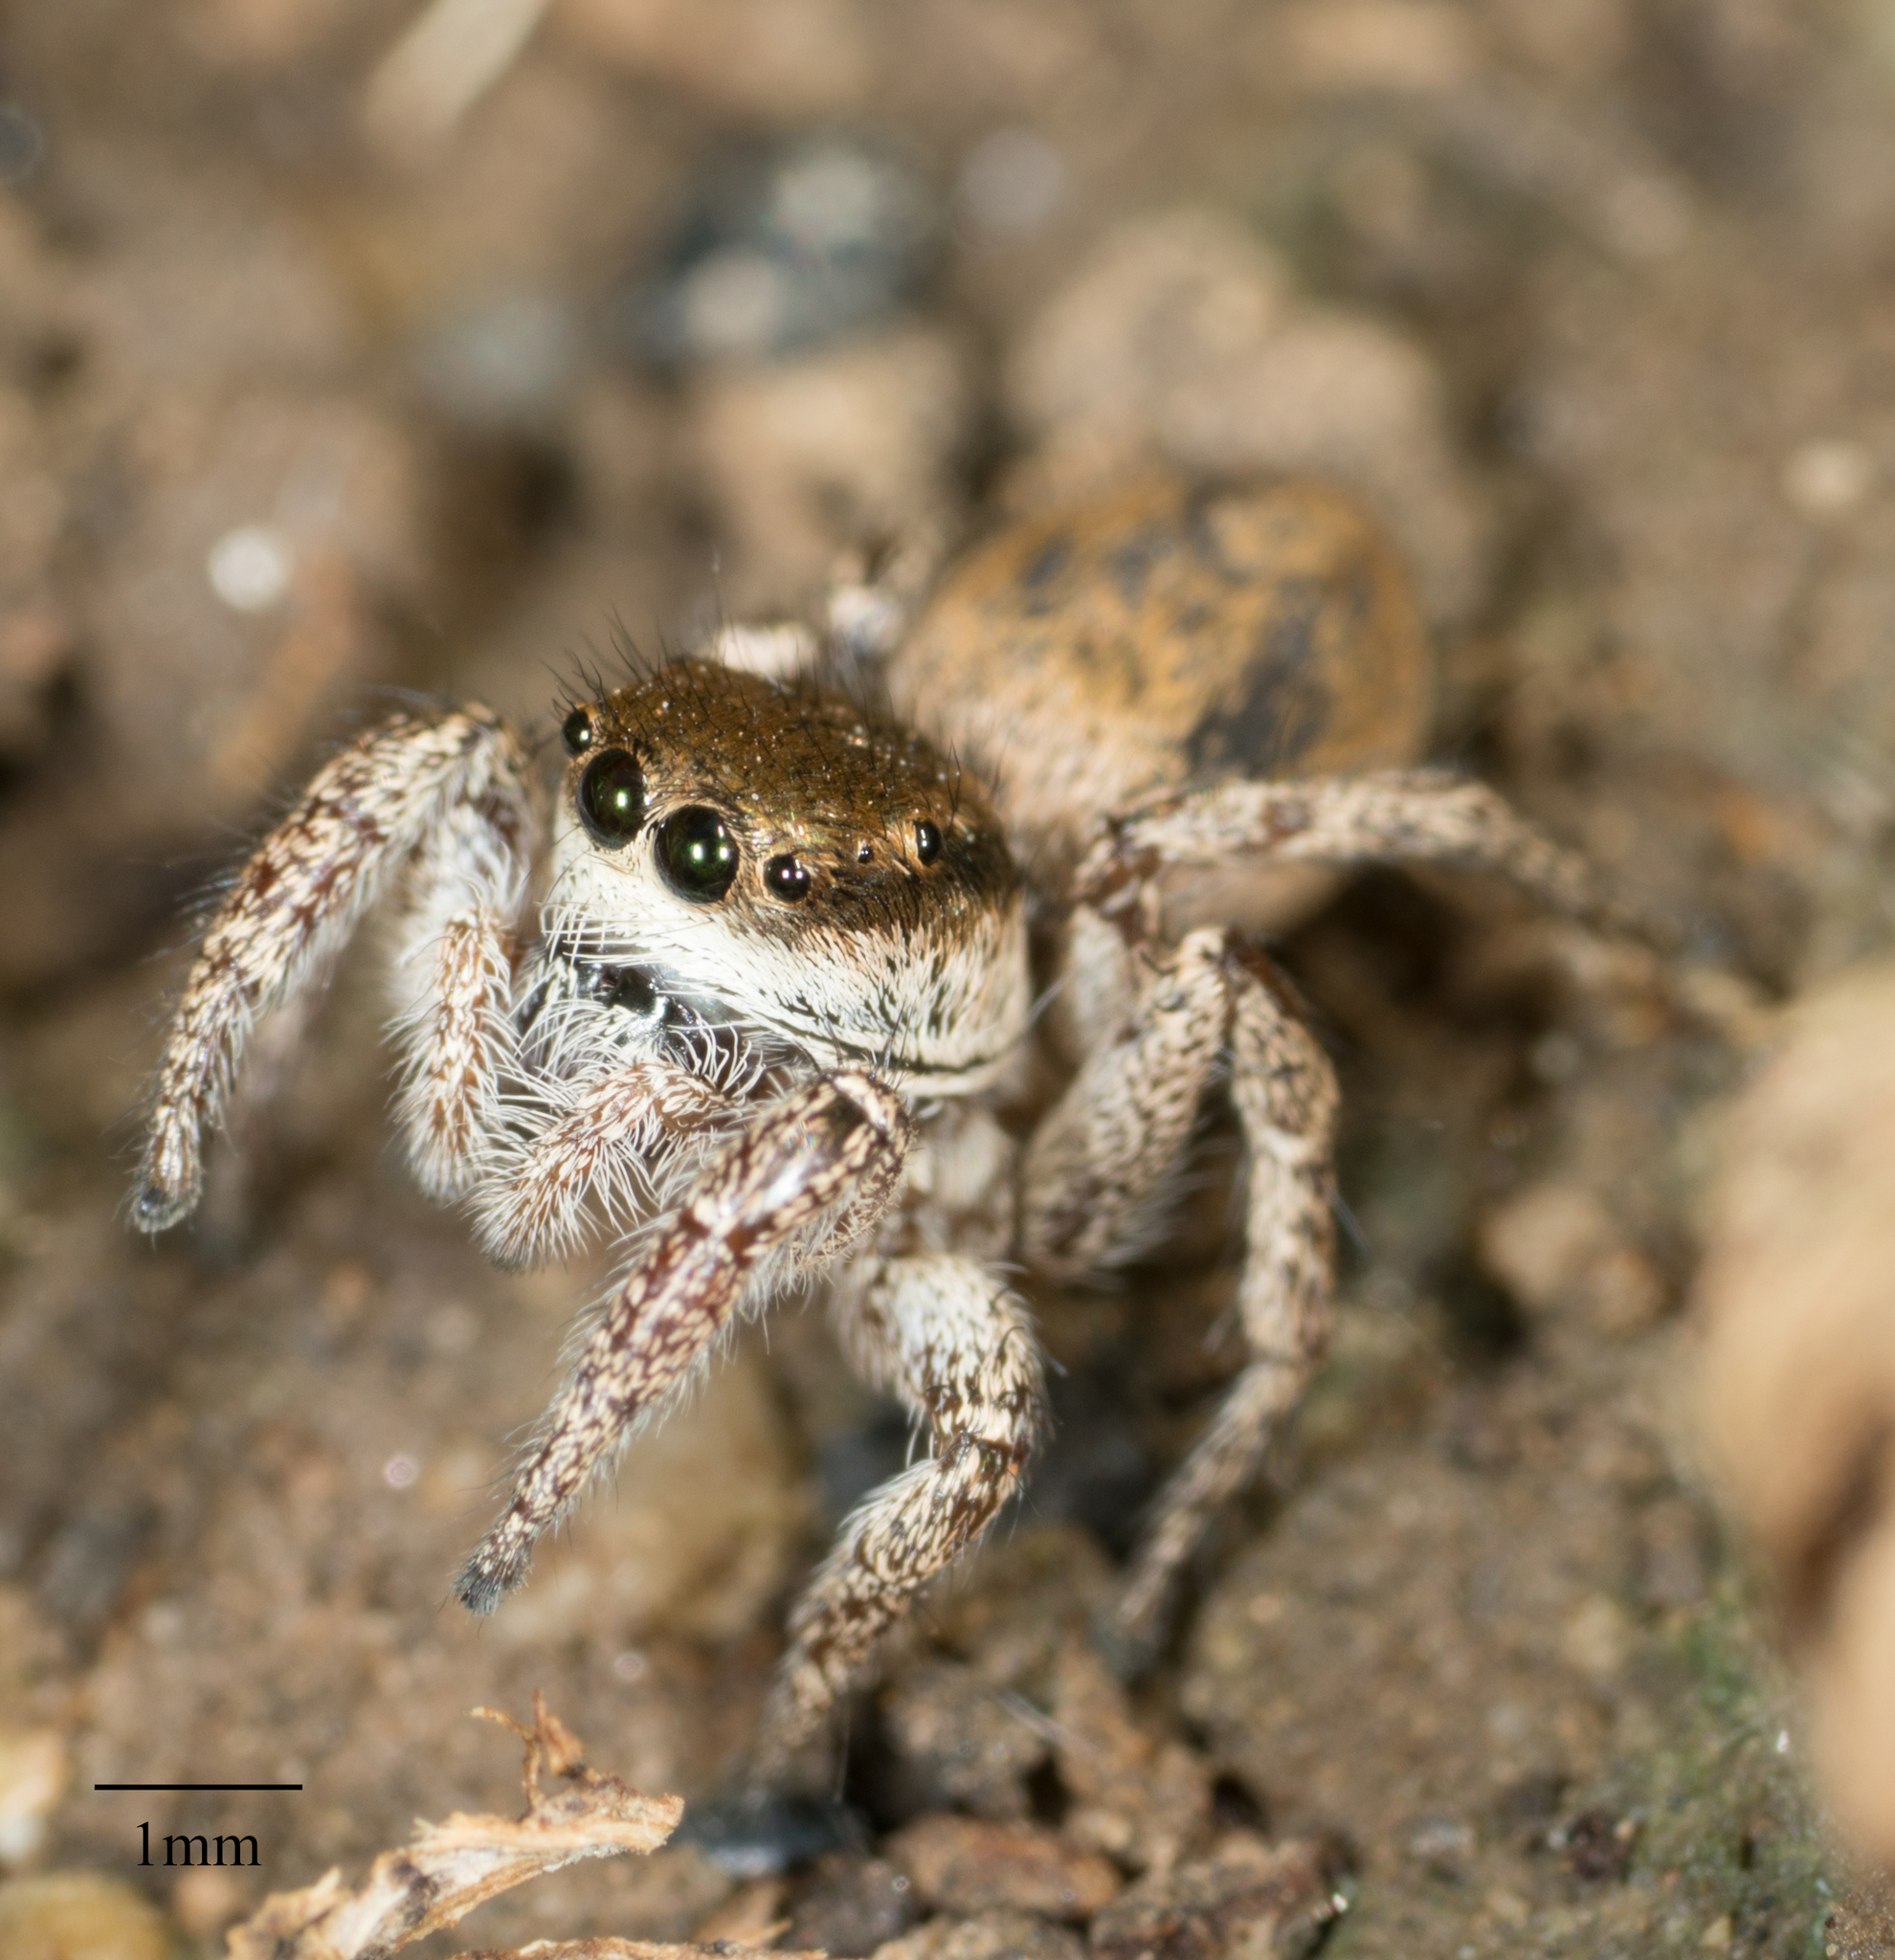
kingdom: Animalia
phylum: Arthropoda
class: Arachnida
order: Araneae
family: Salticidae
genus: Habronattus
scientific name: Habronattus pyrrithrix
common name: Jumping spider
